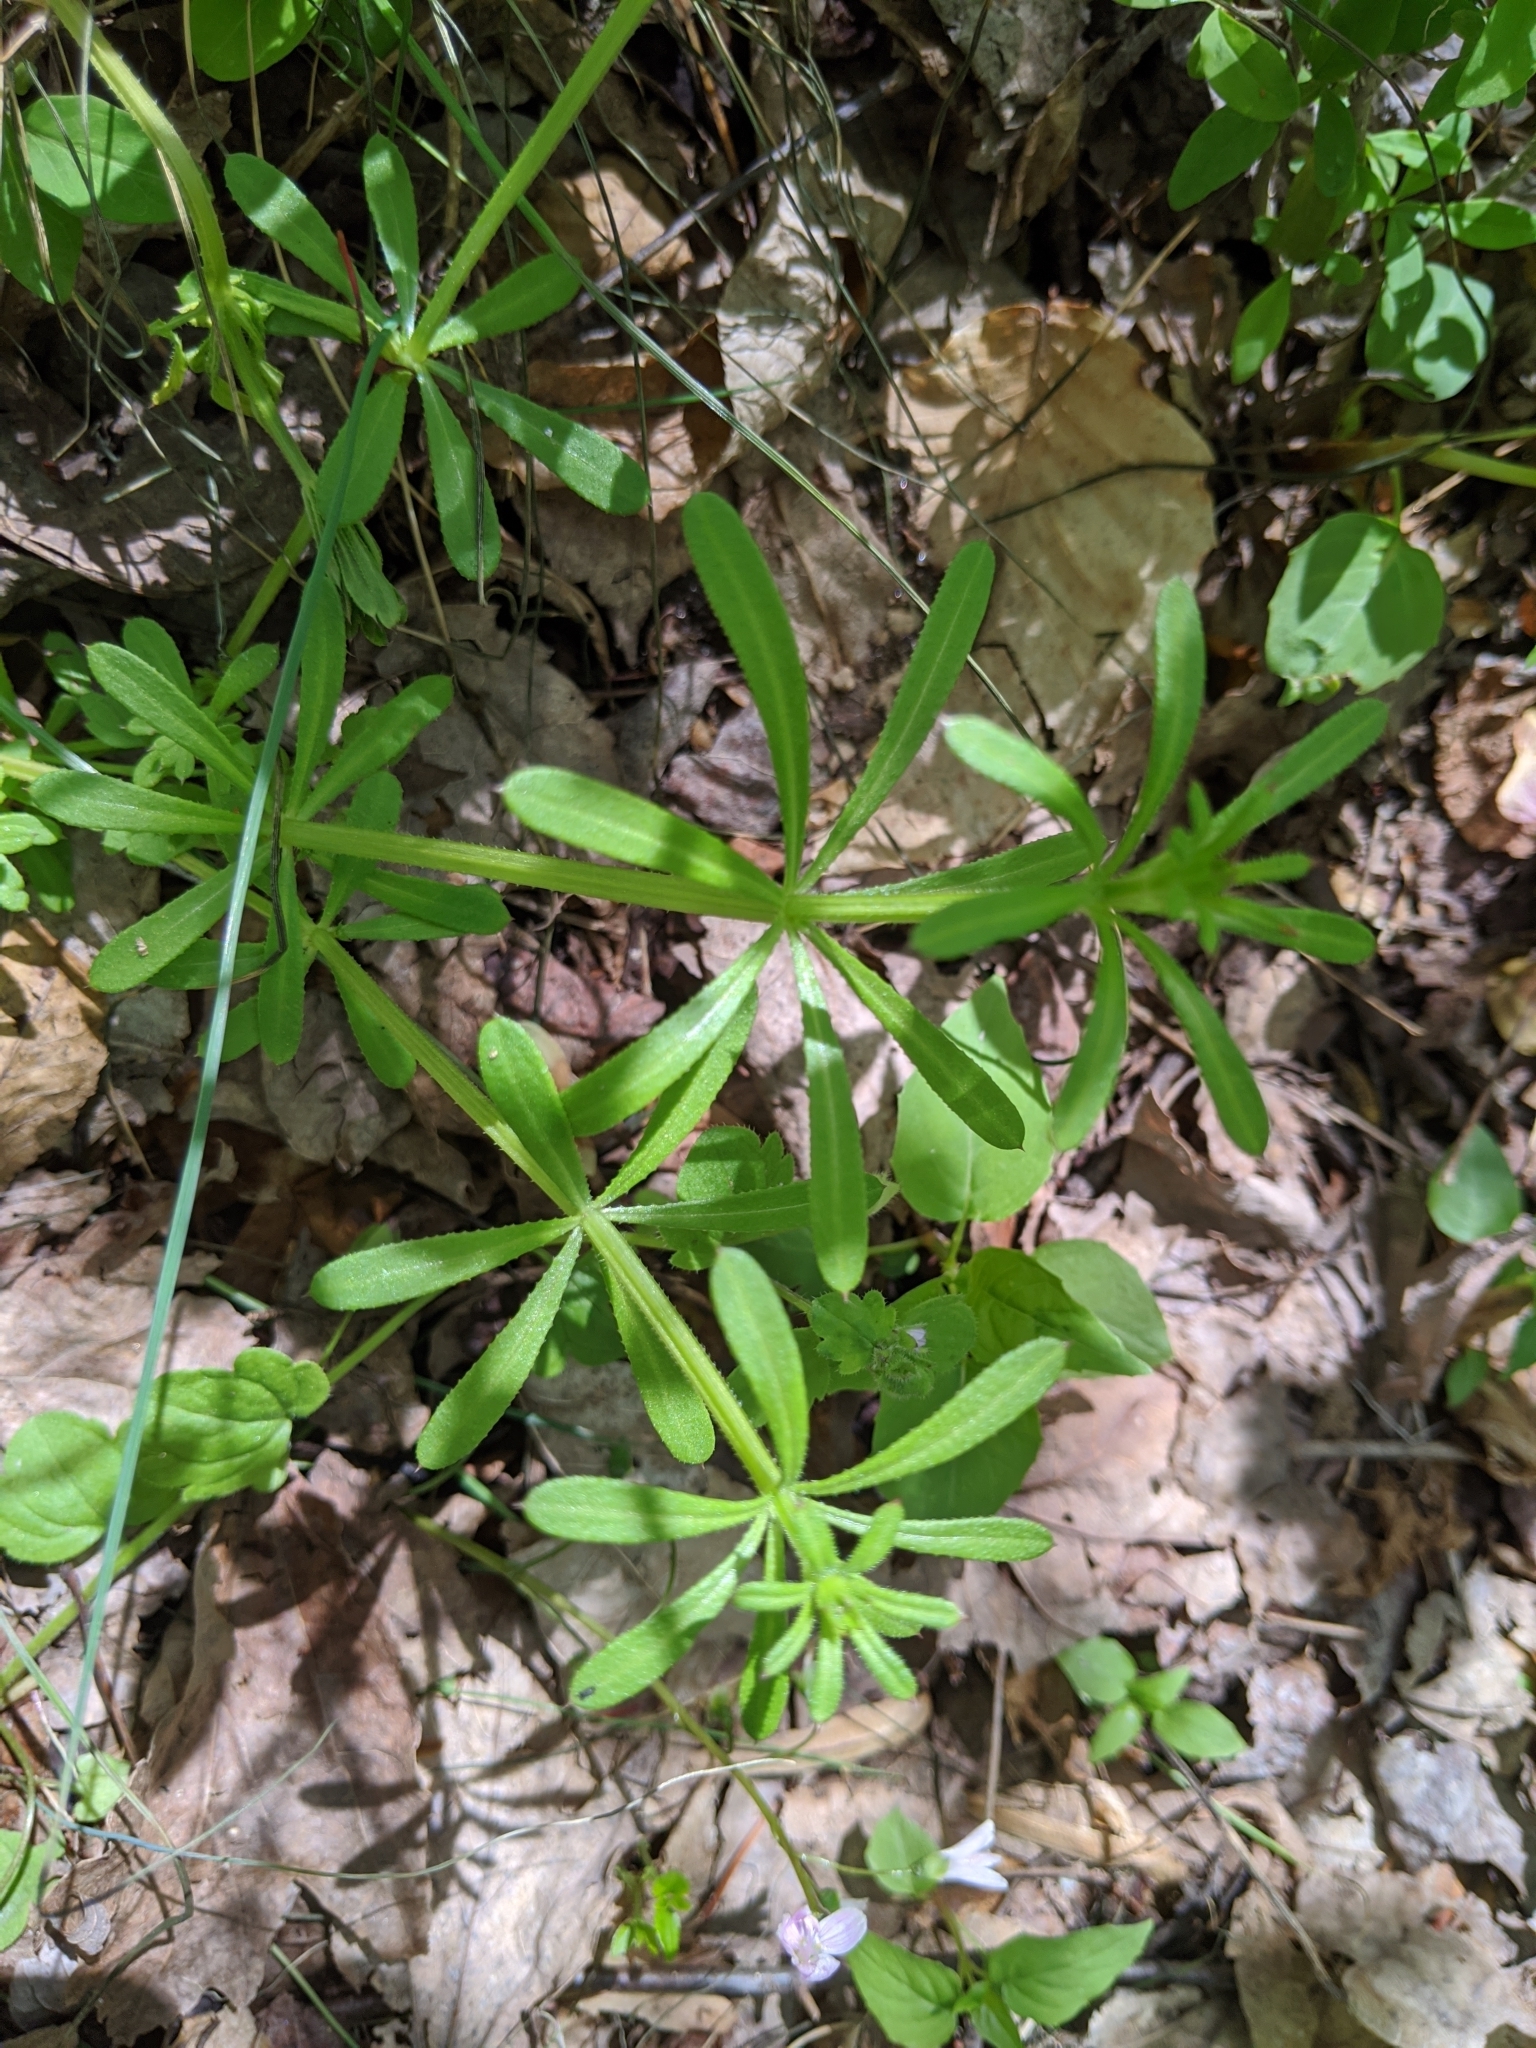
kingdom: Plantae
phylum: Tracheophyta
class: Magnoliopsida
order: Gentianales
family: Rubiaceae
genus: Galium
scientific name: Galium aparine
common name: Cleavers
